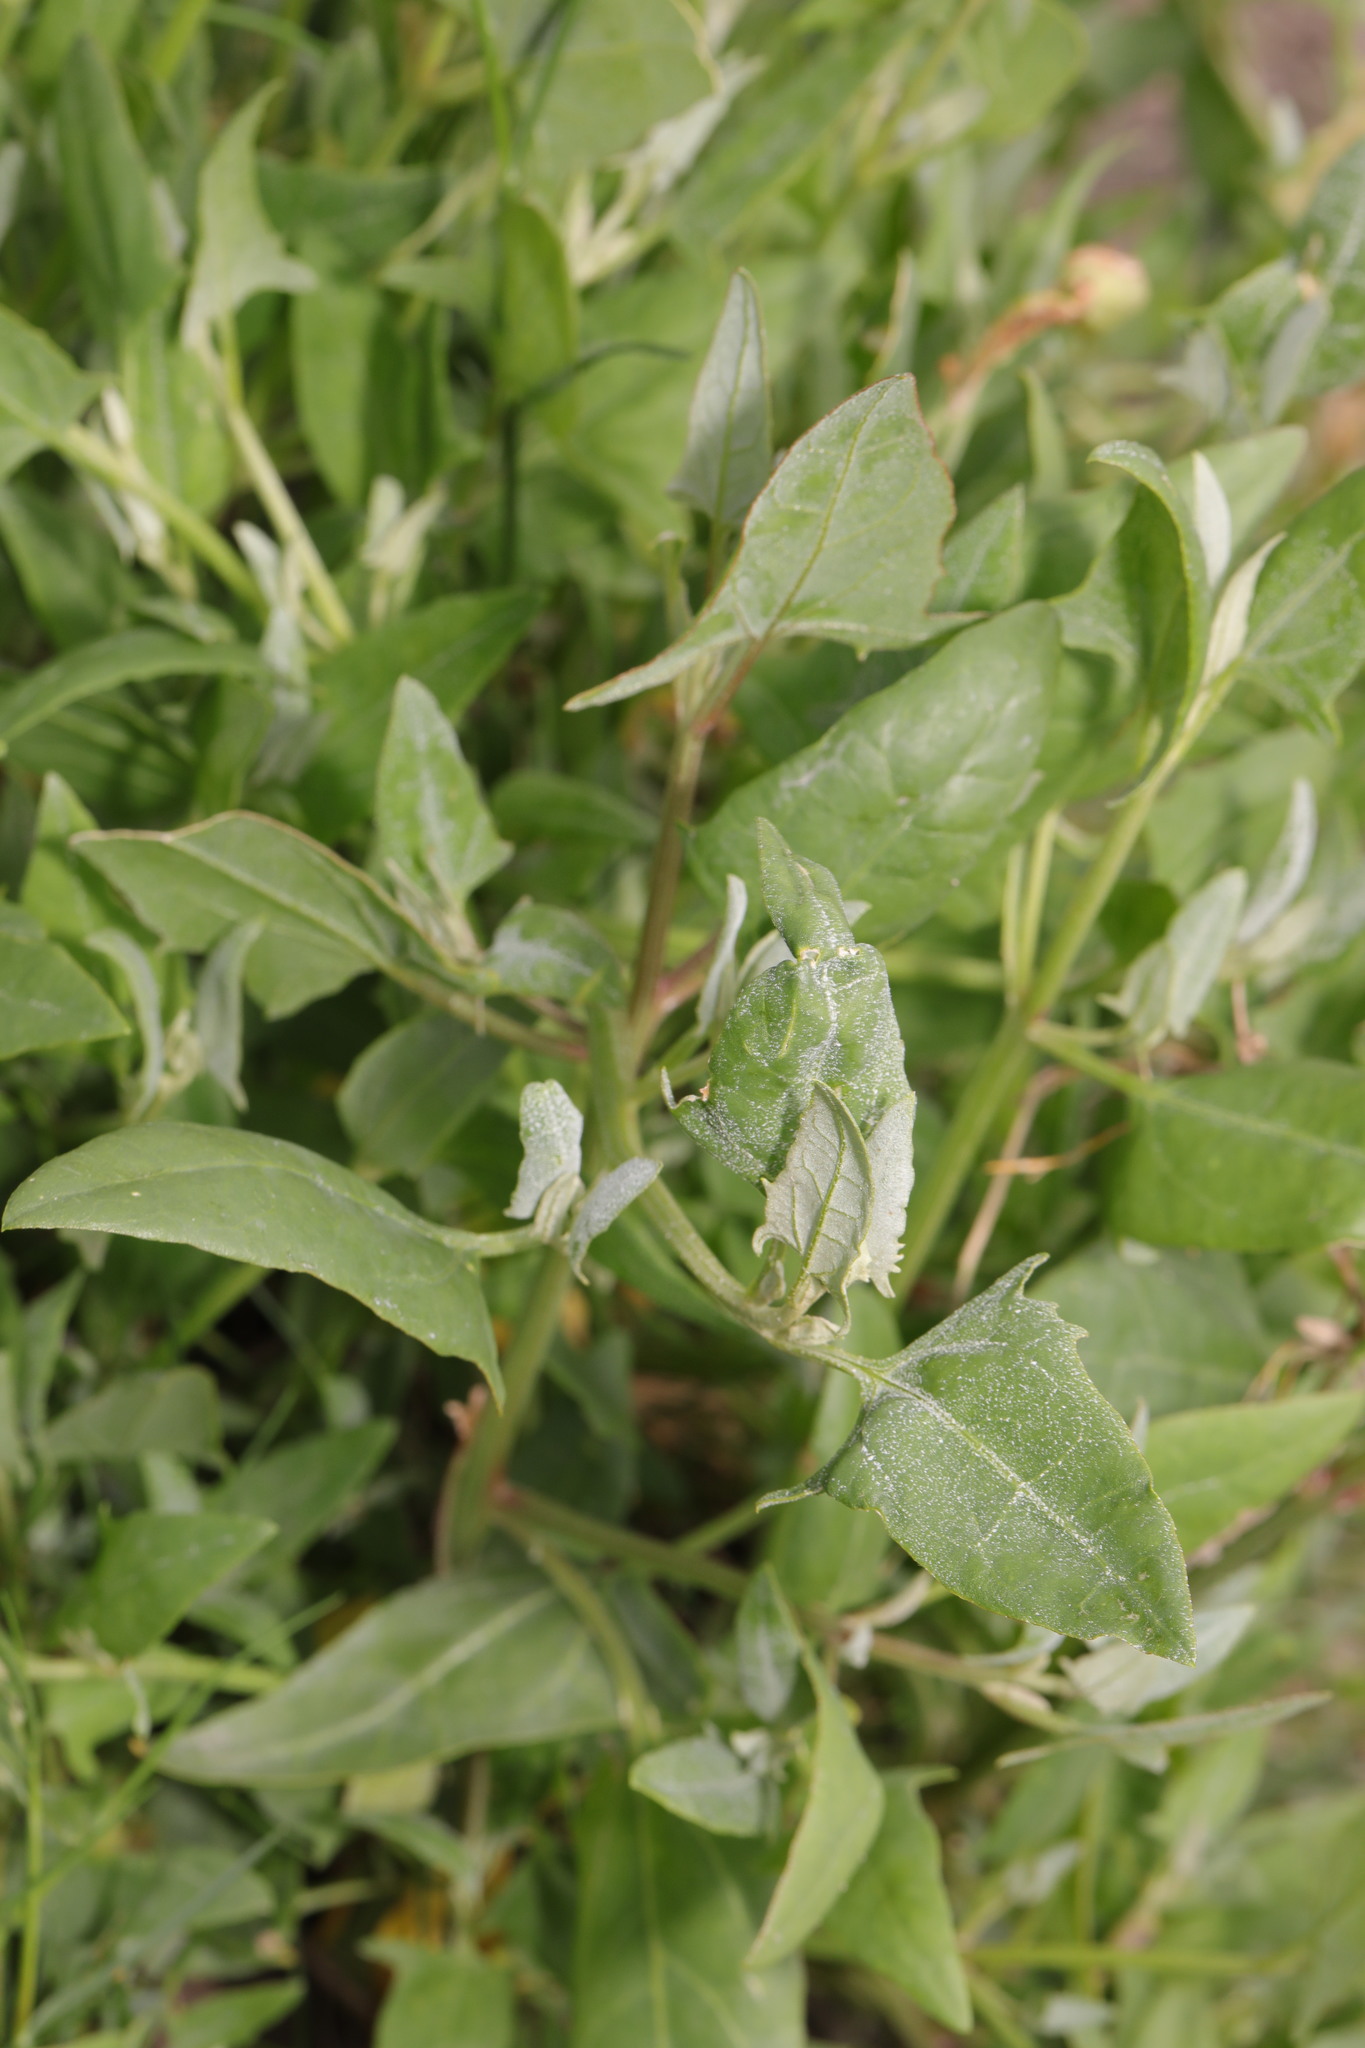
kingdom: Plantae
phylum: Tracheophyta
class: Magnoliopsida
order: Caryophyllales
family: Amaranthaceae
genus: Atriplex
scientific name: Atriplex prostrata
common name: Spear-leaved orache
